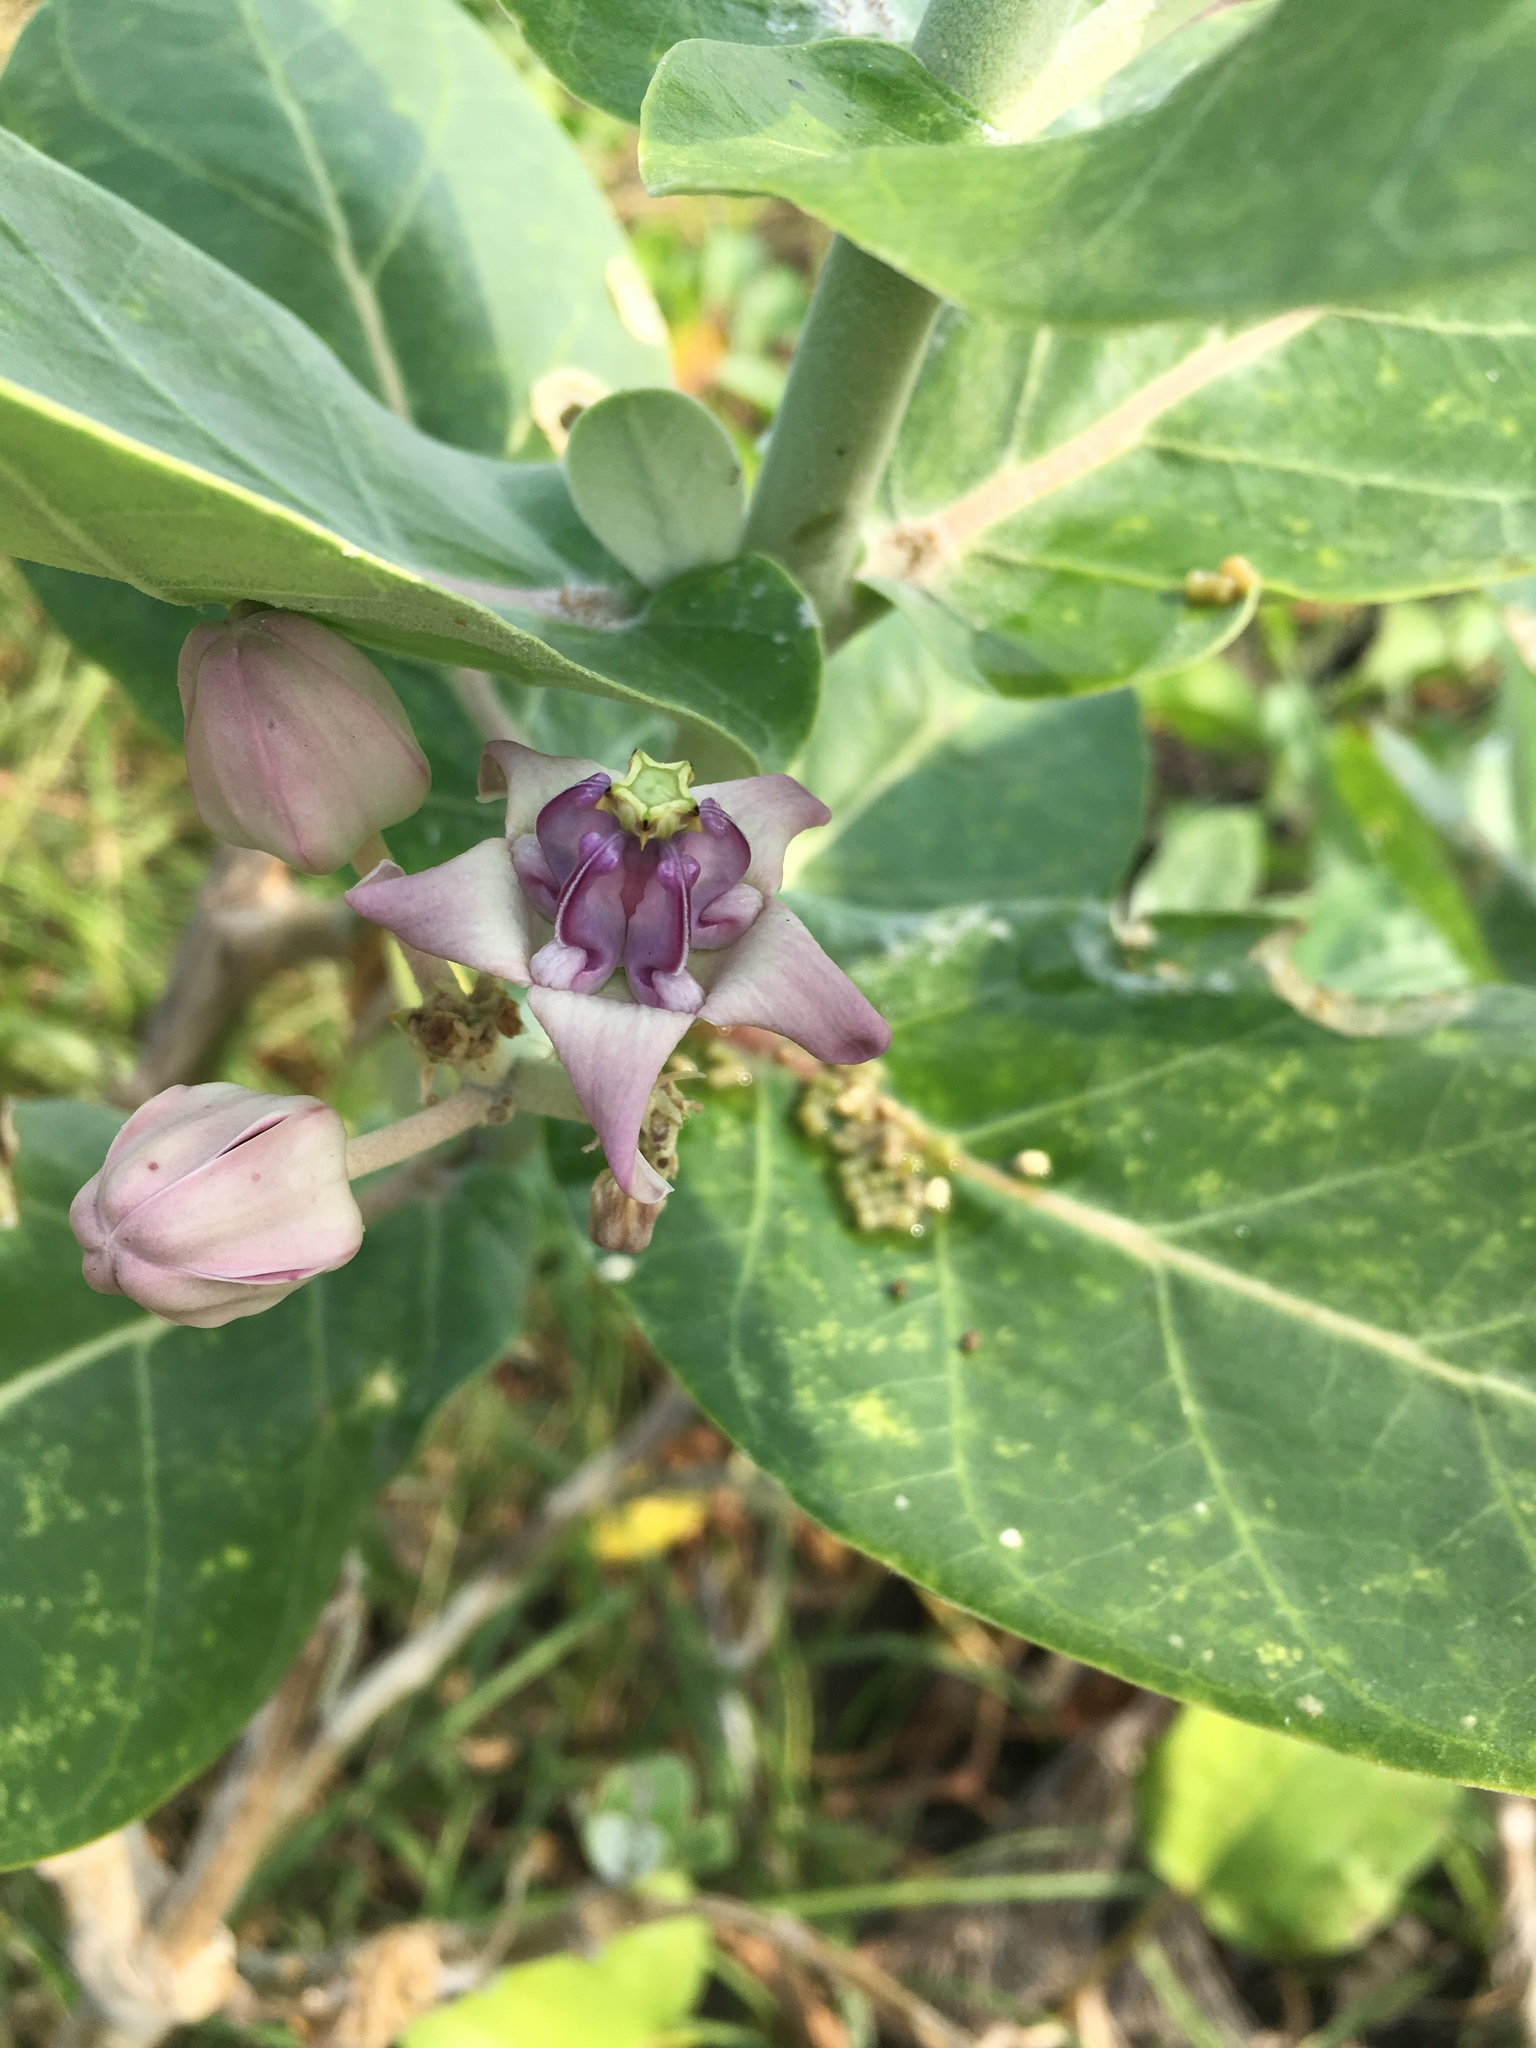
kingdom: Plantae
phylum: Tracheophyta
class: Magnoliopsida
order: Gentianales
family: Apocynaceae
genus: Calotropis
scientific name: Calotropis gigantea
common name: Crown flower
